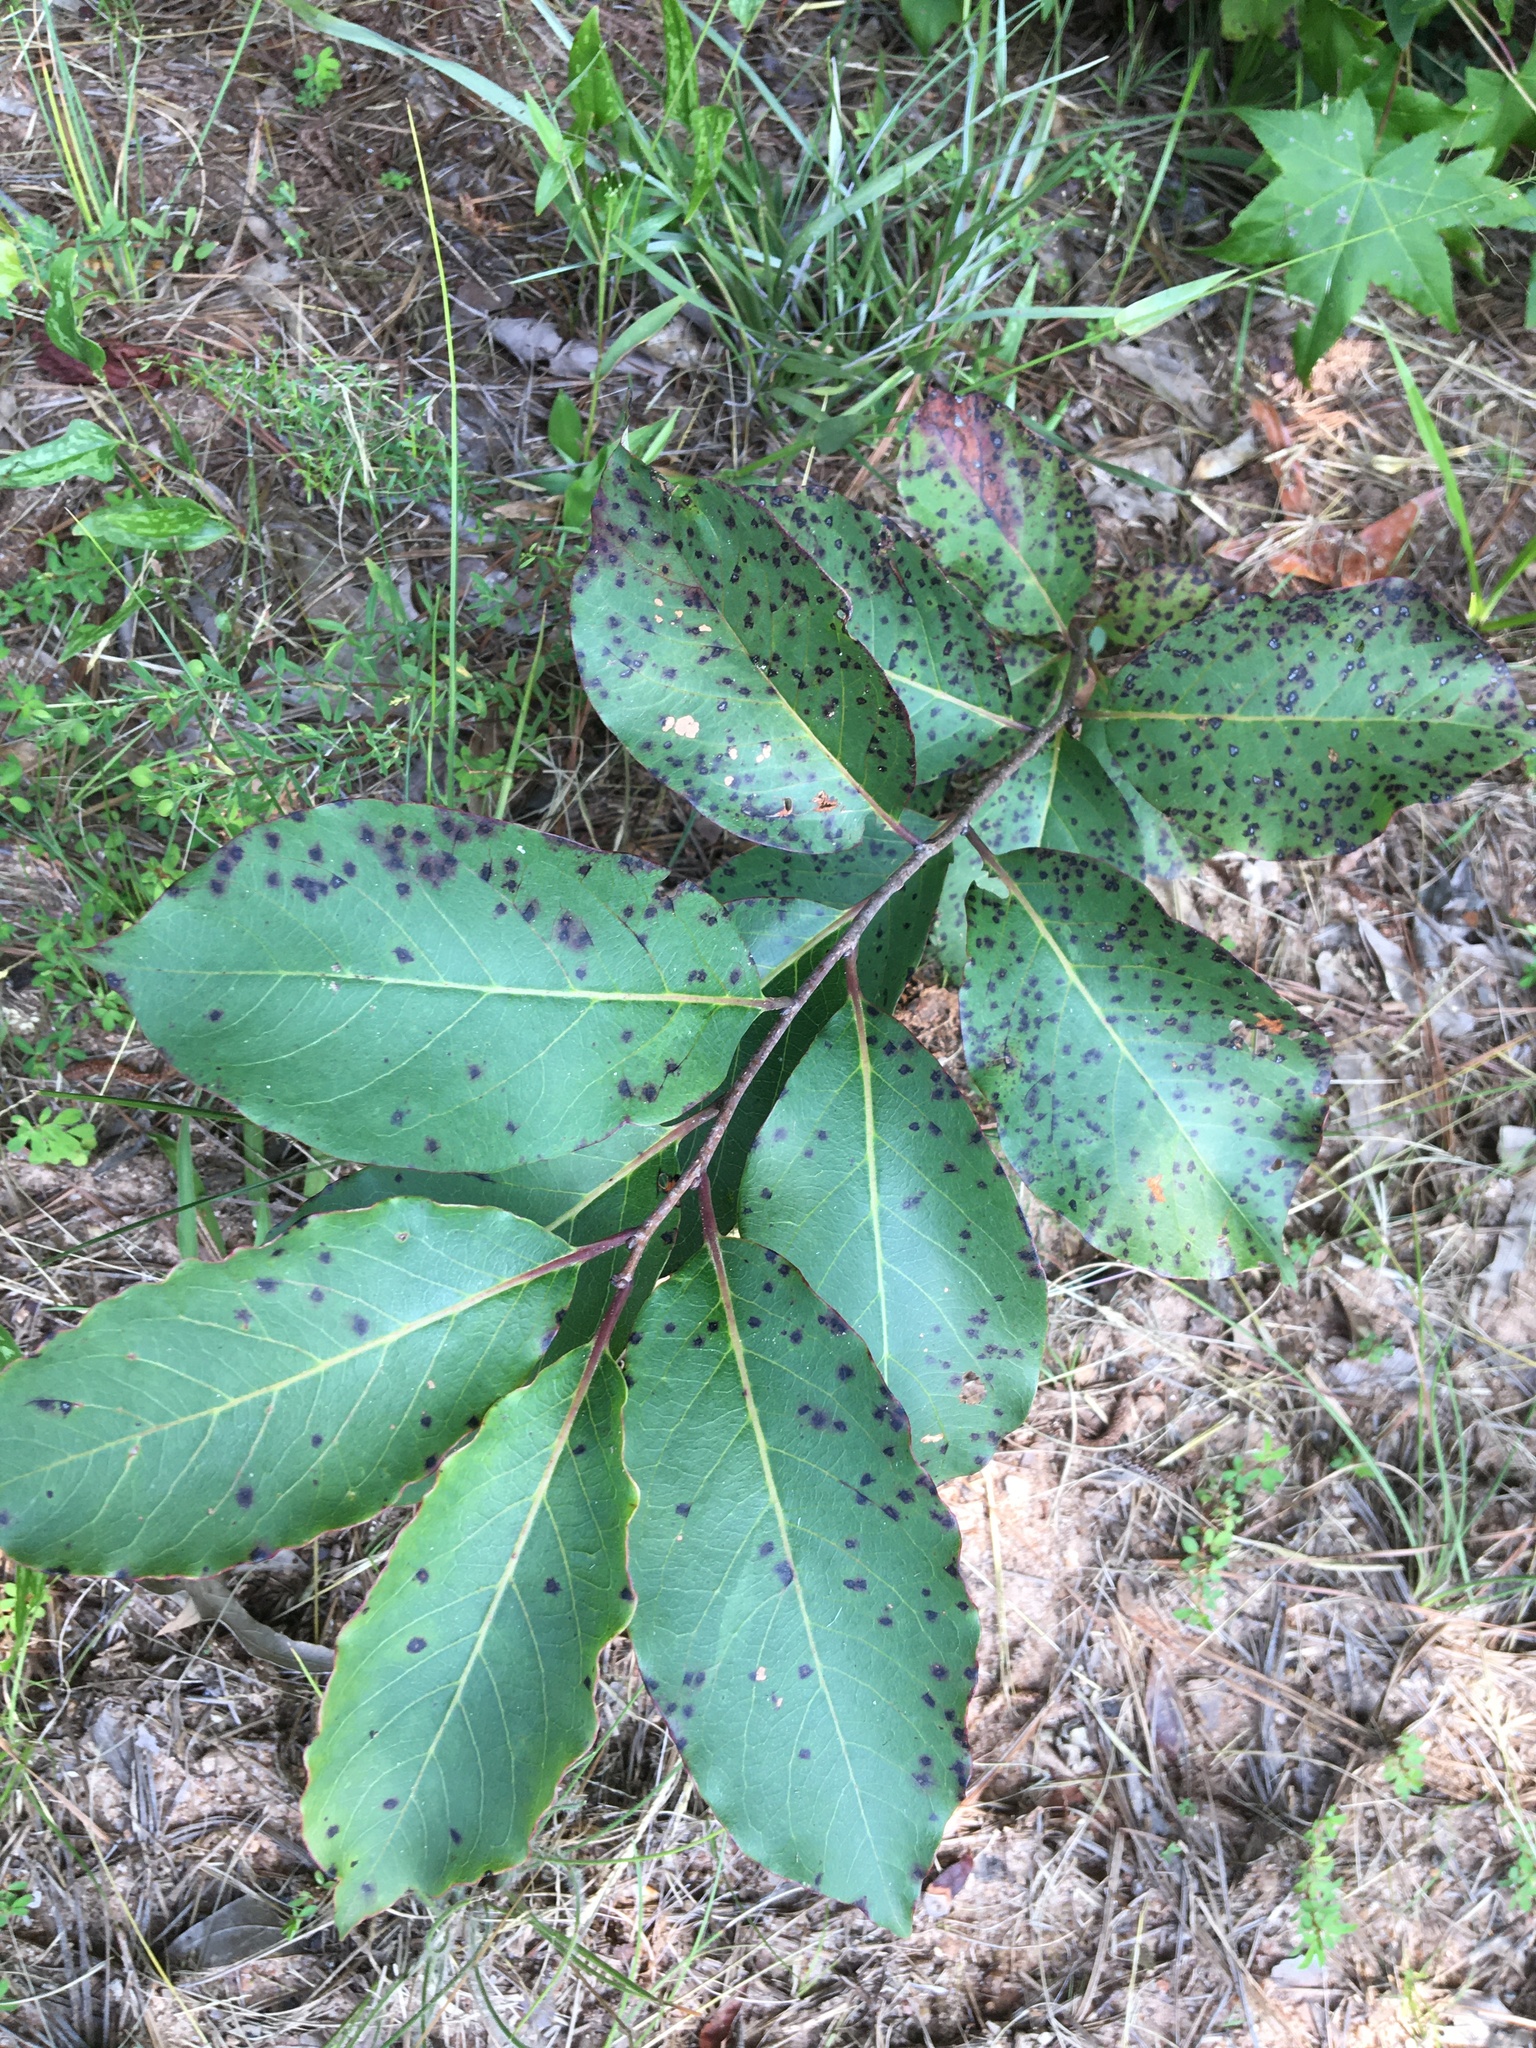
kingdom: Plantae
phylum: Tracheophyta
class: Magnoliopsida
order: Ericales
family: Ebenaceae
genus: Diospyros
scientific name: Diospyros virginiana
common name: Persimmon
